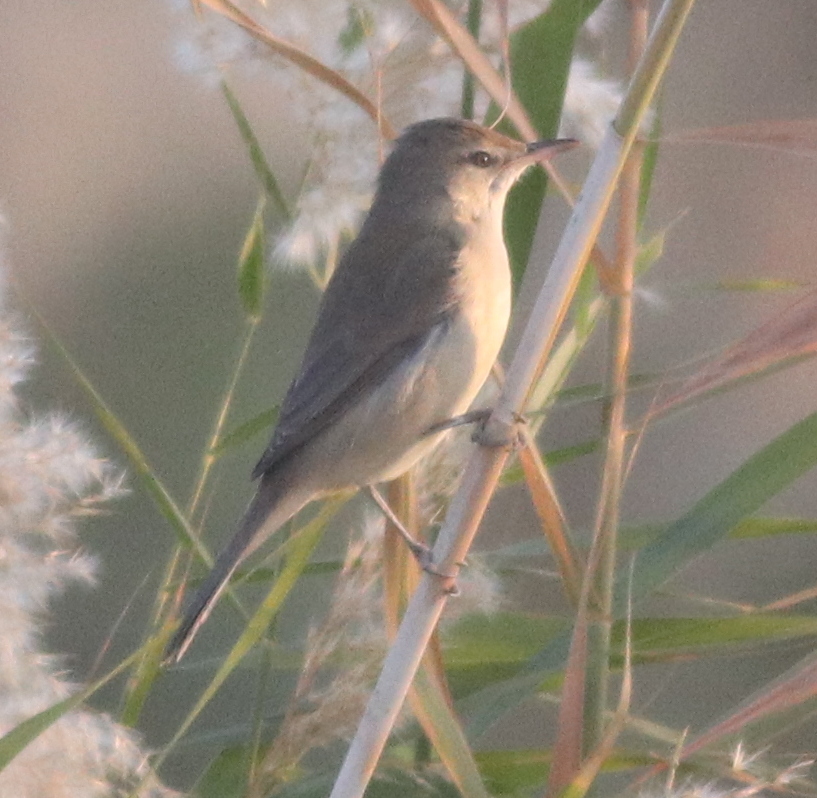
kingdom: Animalia
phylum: Chordata
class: Aves
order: Passeriformes
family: Acrocephalidae
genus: Acrocephalus
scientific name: Acrocephalus stentoreus
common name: Clamorous reed warbler
